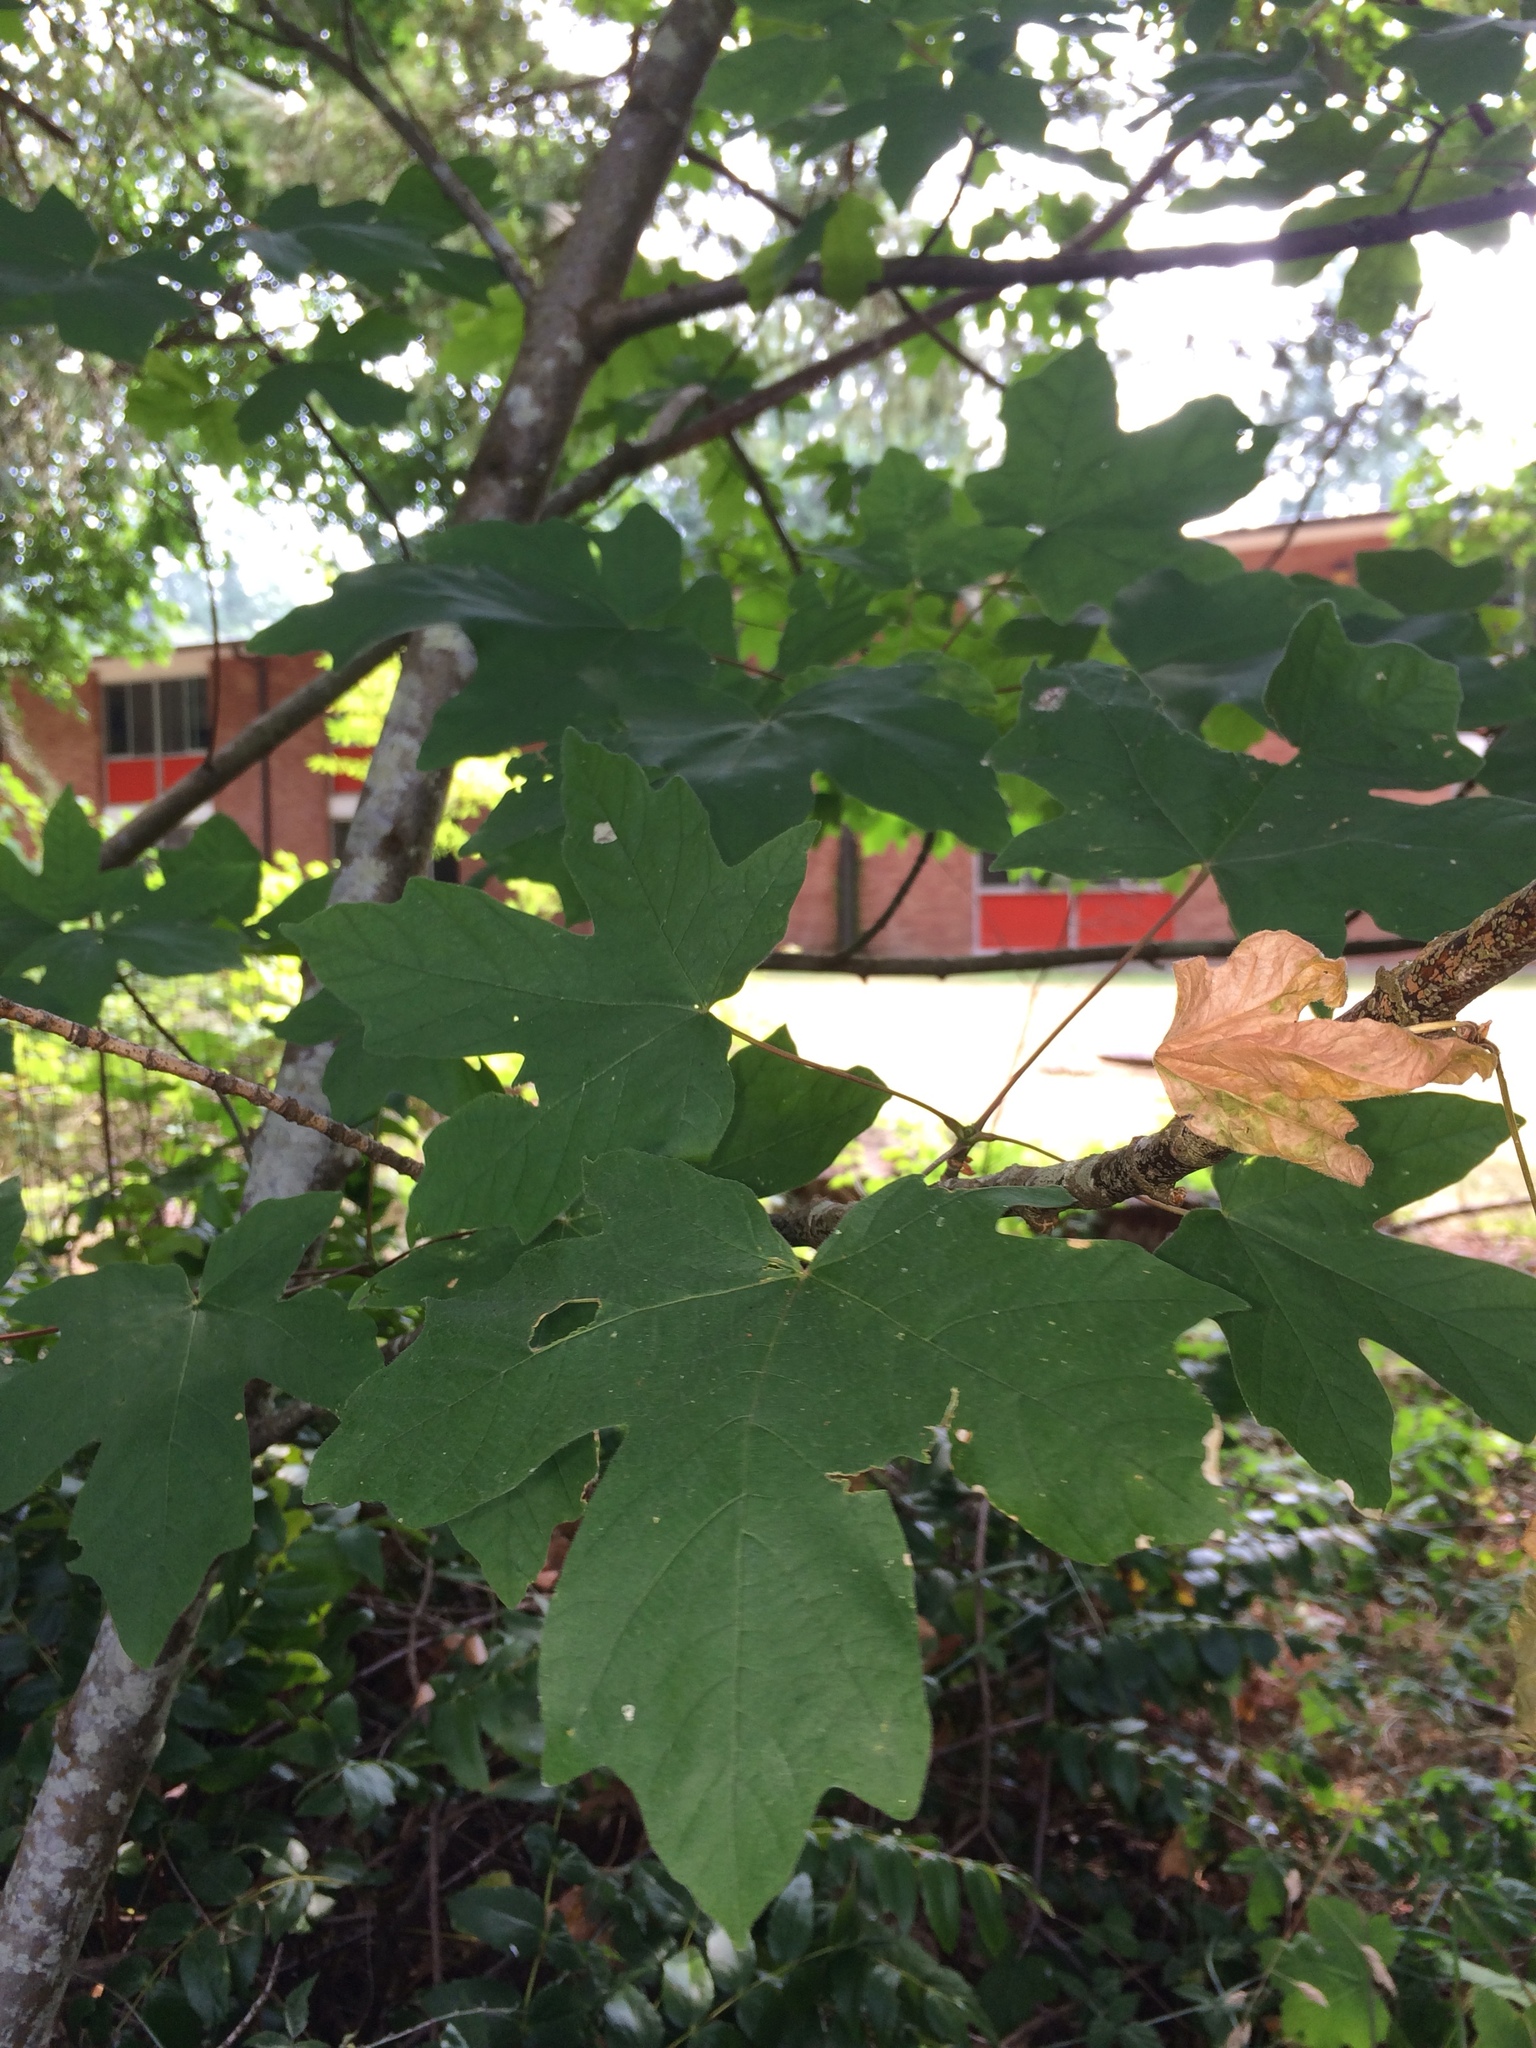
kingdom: Plantae
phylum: Tracheophyta
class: Magnoliopsida
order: Sapindales
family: Sapindaceae
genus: Acer
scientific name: Acer macrophyllum
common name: Oregon maple
